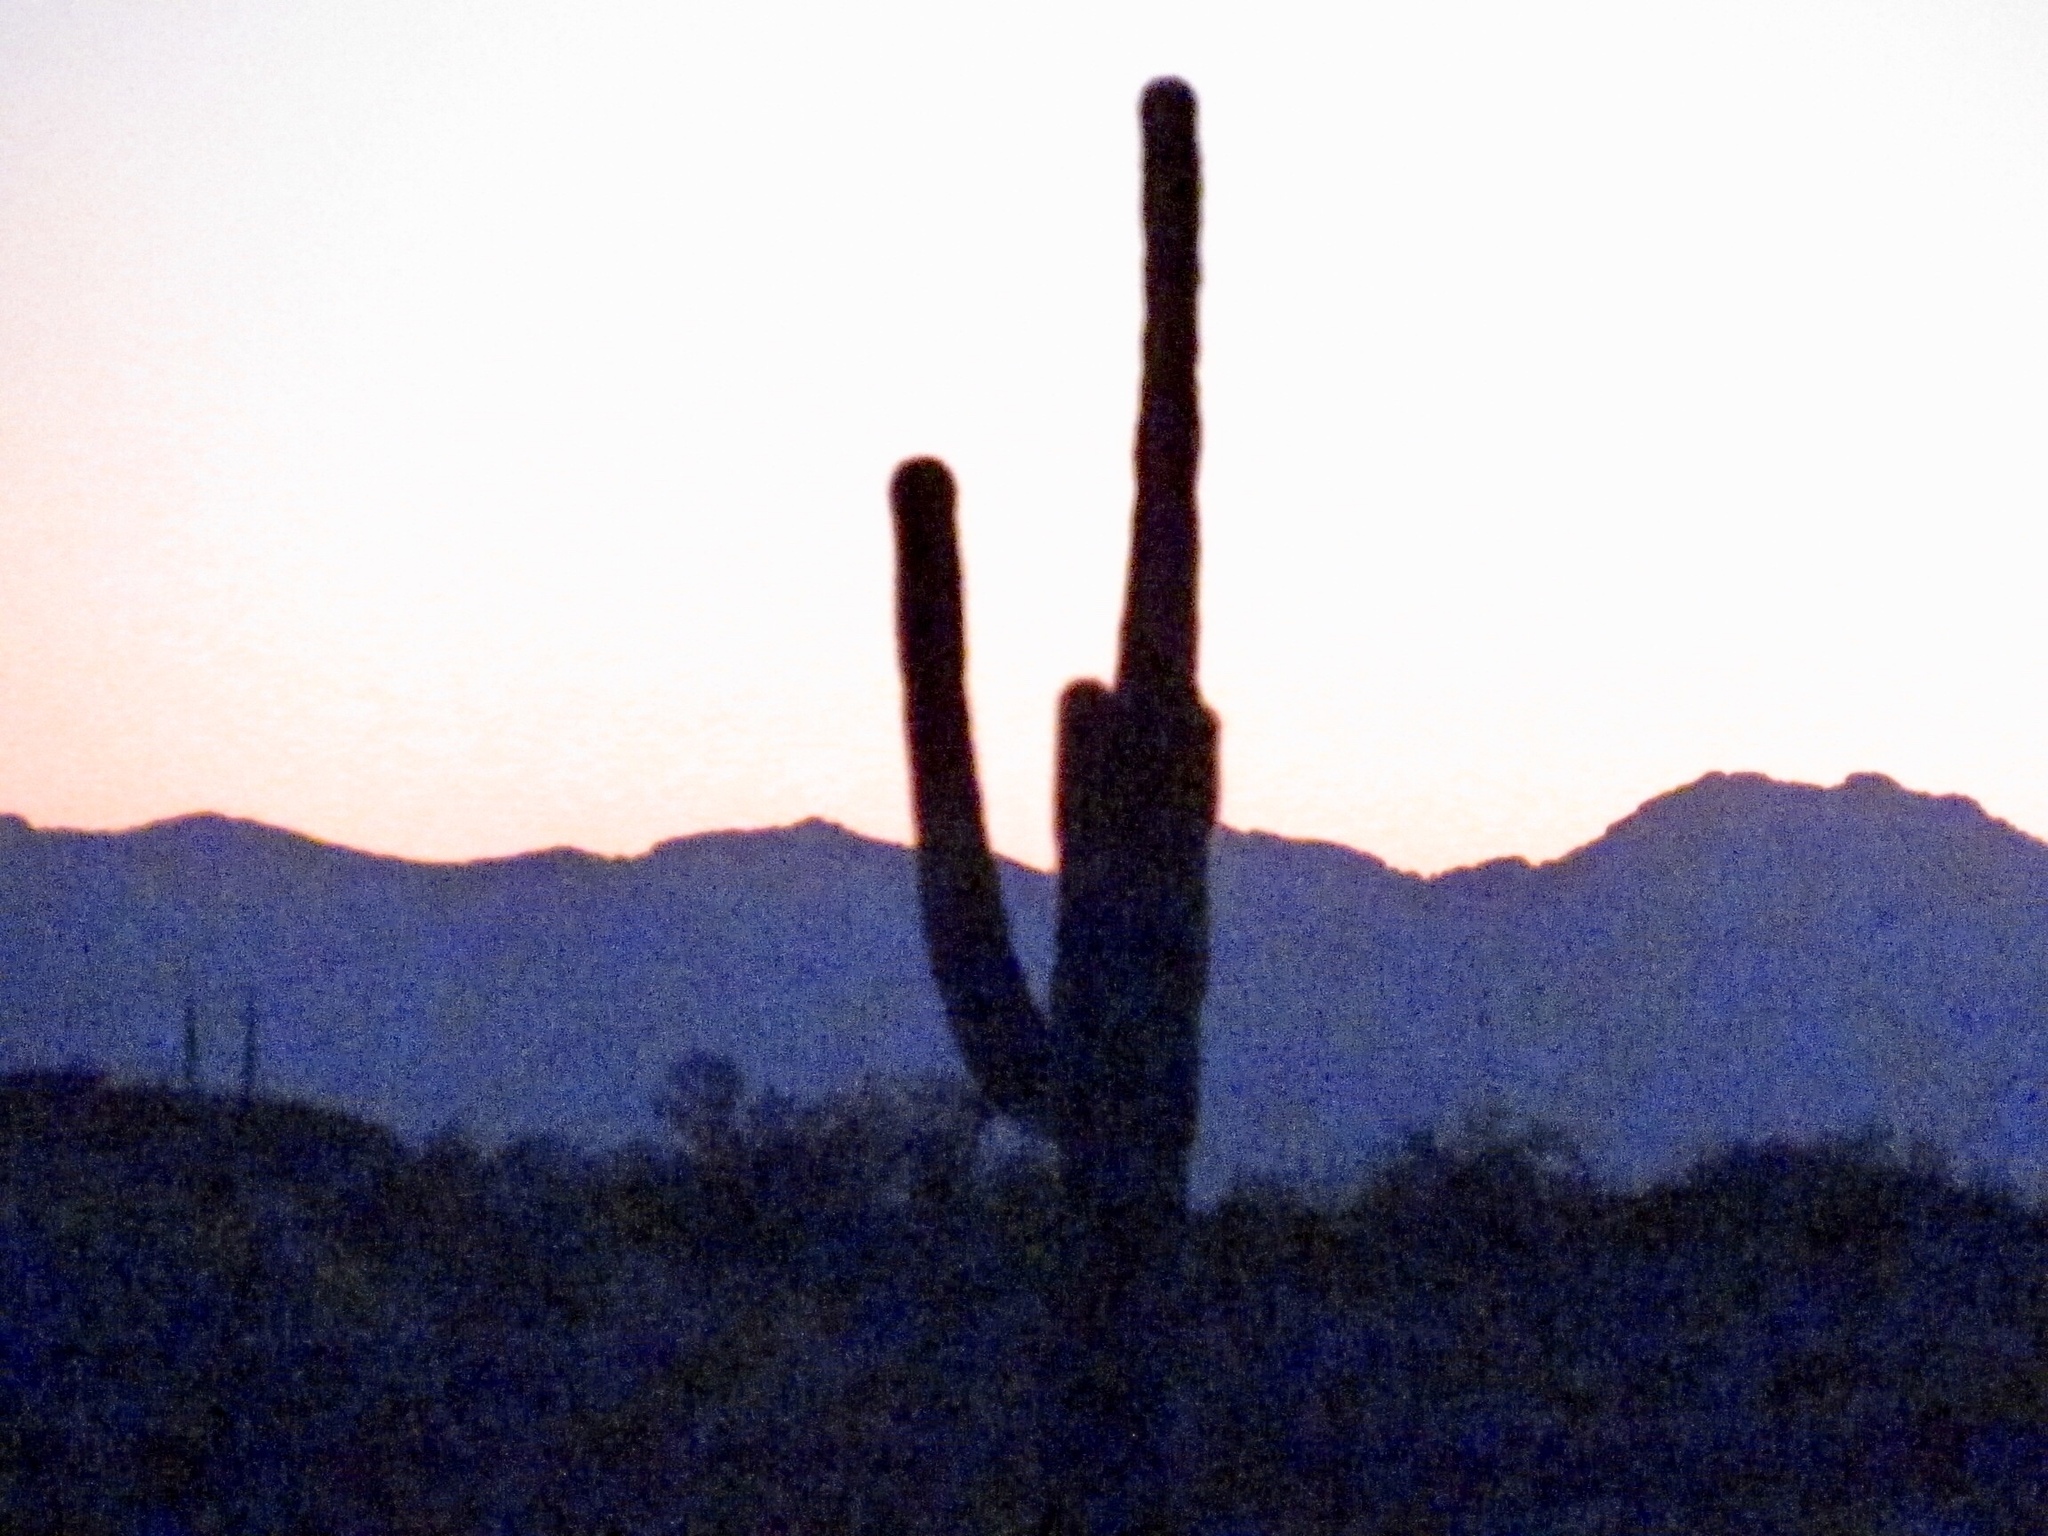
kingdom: Plantae
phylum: Tracheophyta
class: Magnoliopsida
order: Caryophyllales
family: Cactaceae
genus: Carnegiea
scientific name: Carnegiea gigantea
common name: Saguaro
